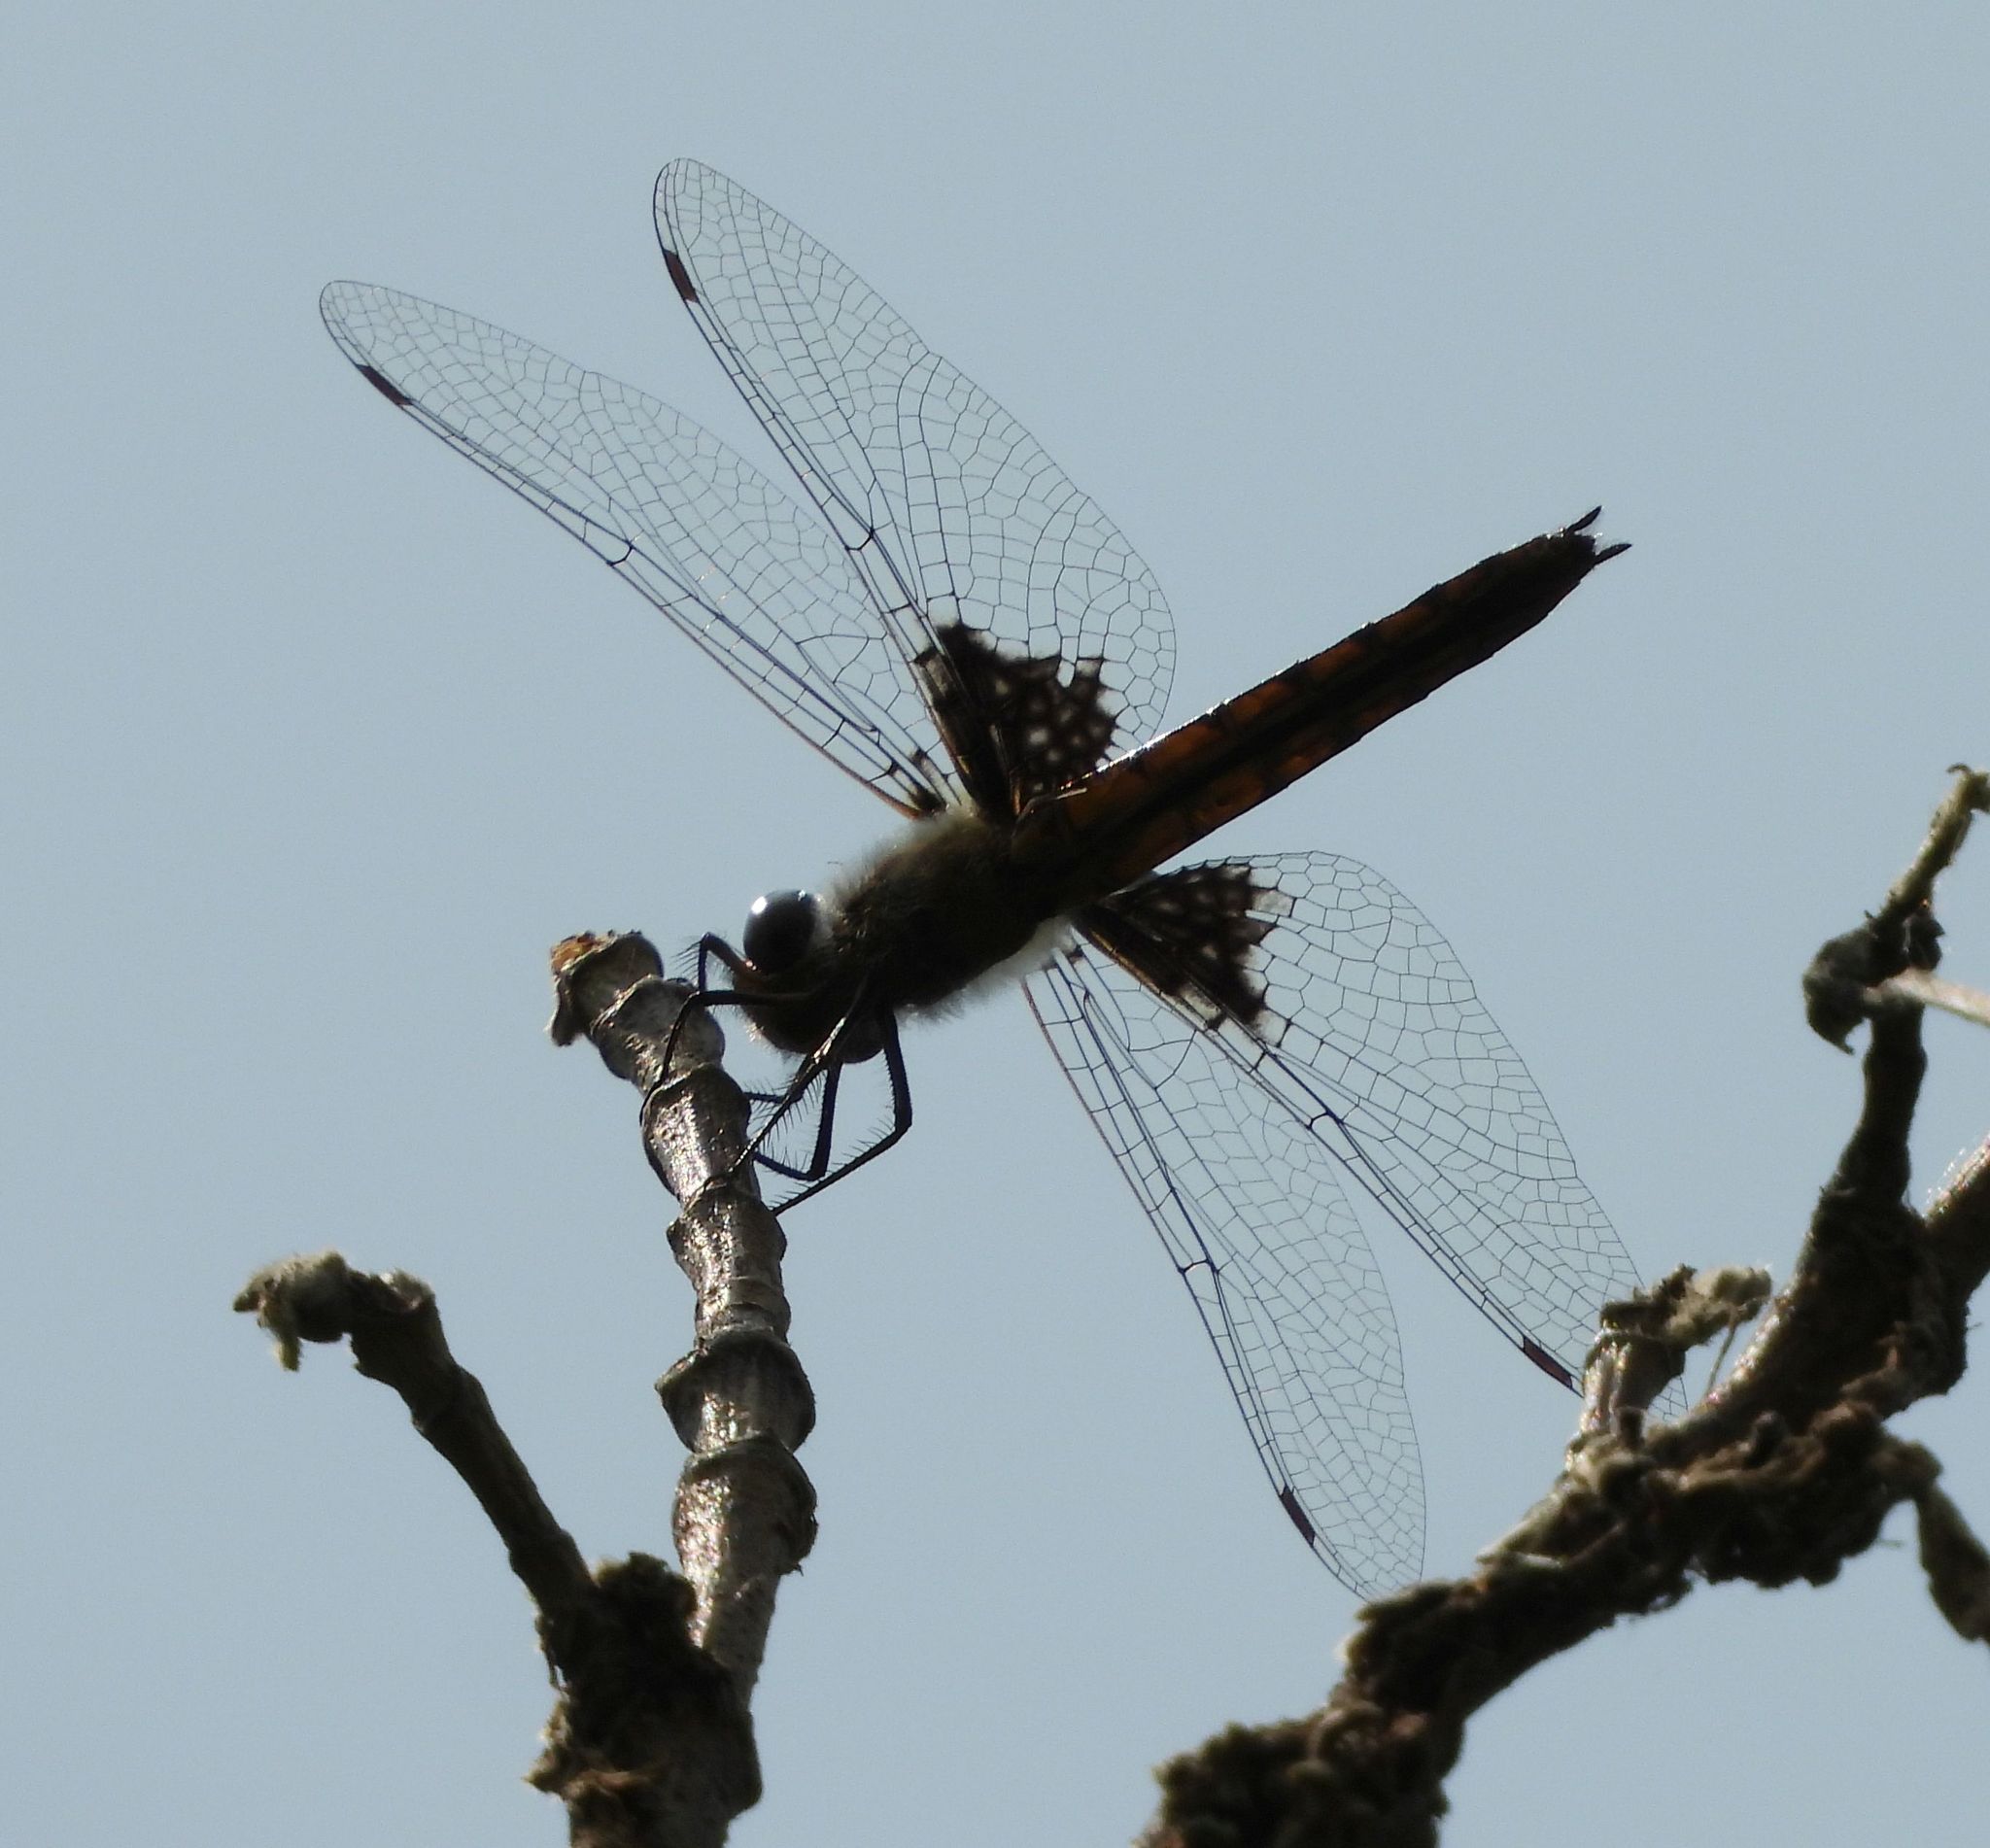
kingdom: Animalia
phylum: Arthropoda
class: Insecta
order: Odonata
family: Corduliidae
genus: Epitheca
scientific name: Epitheca cynosura
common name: Common baskettail
